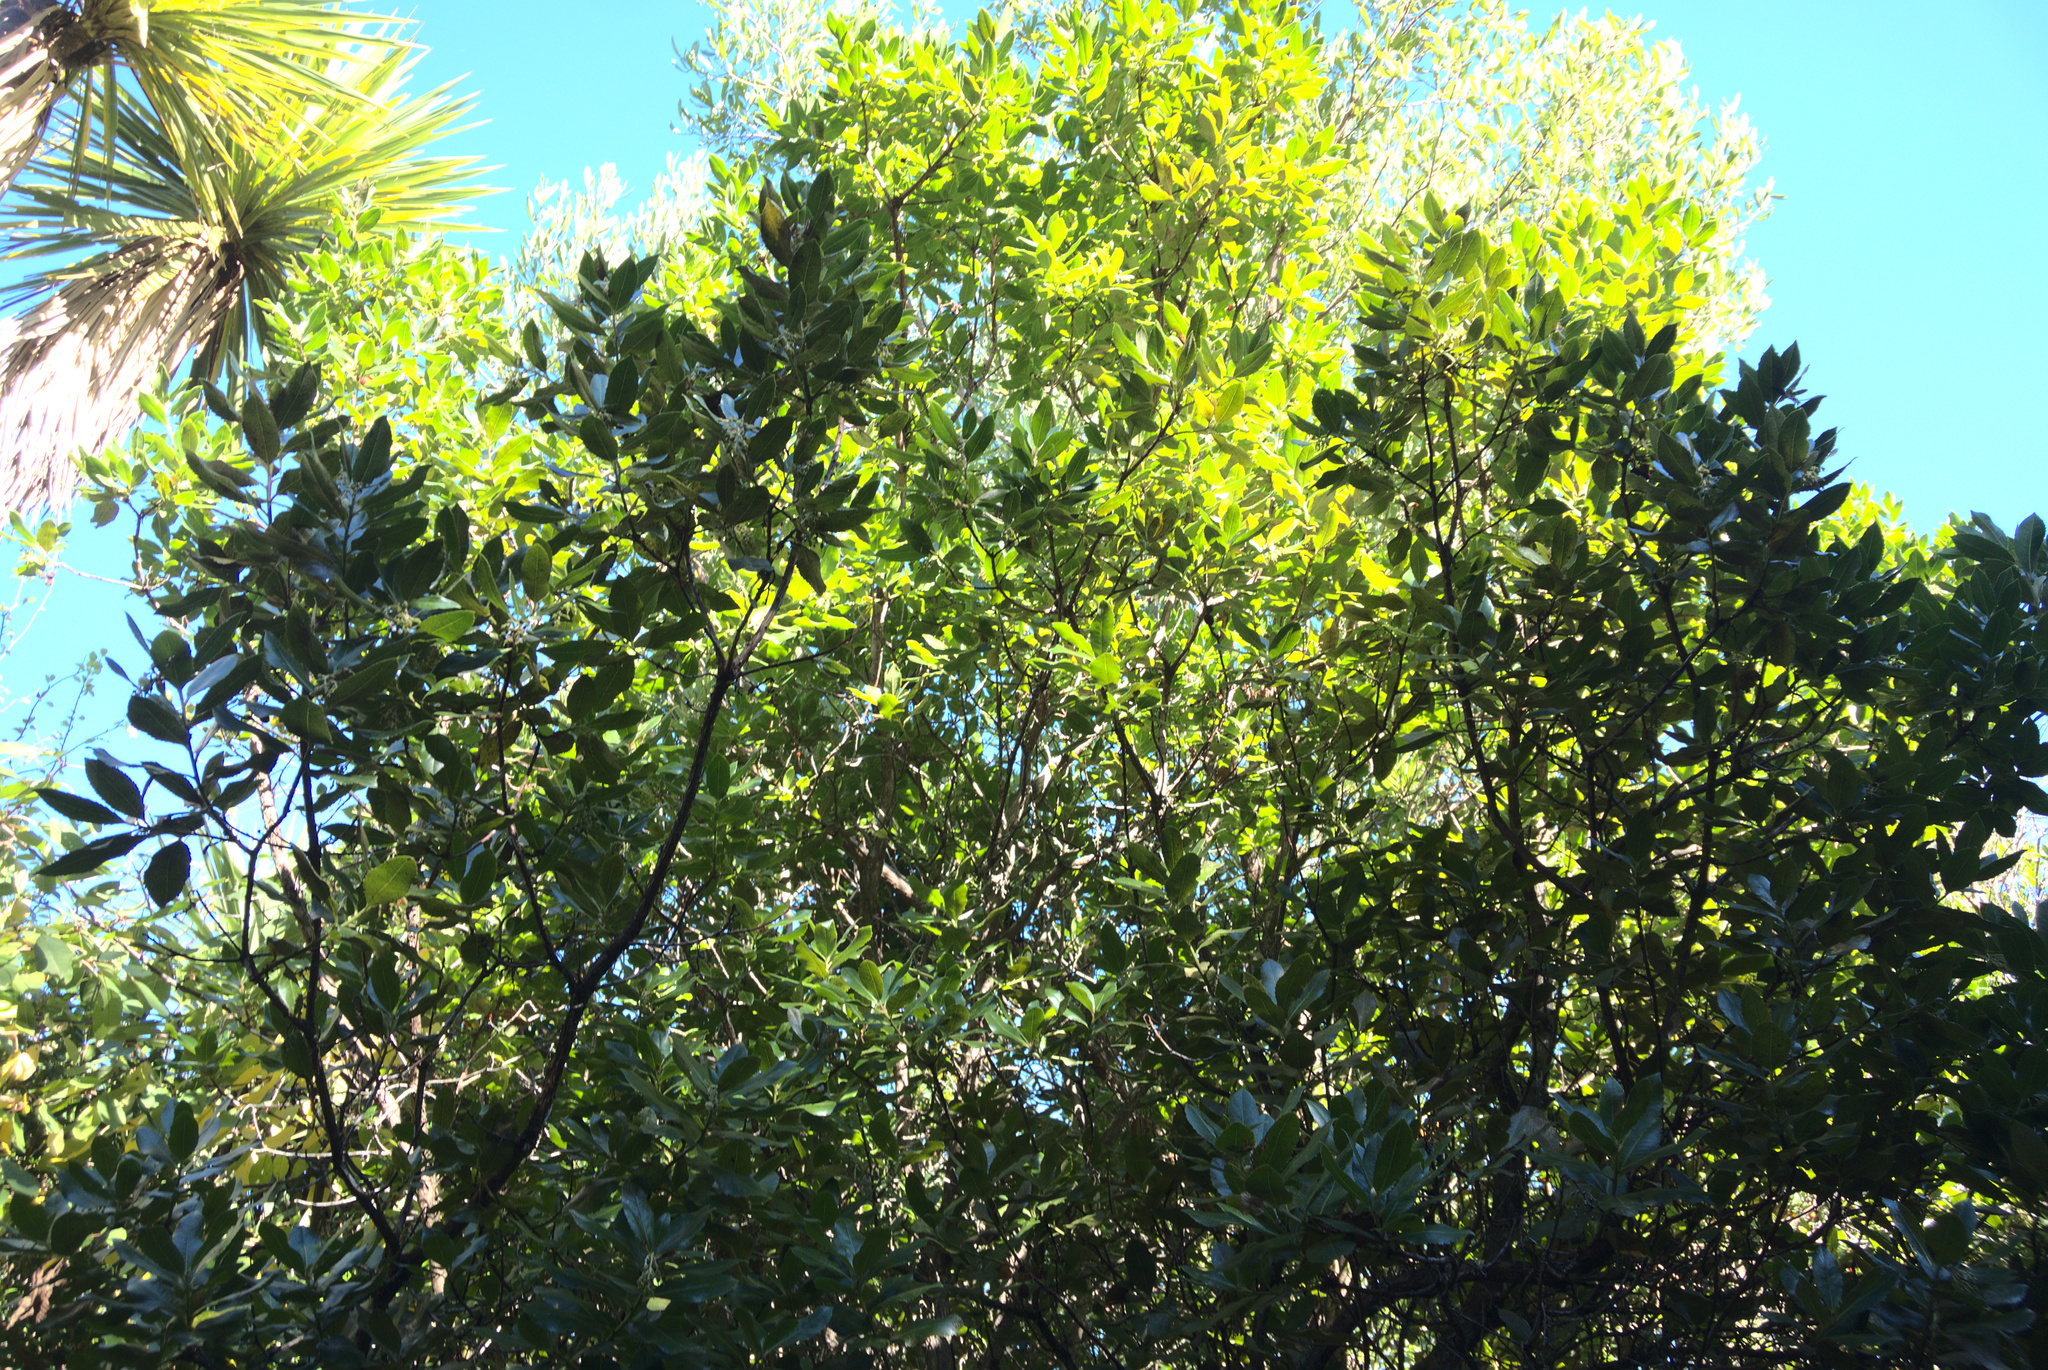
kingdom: Plantae
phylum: Tracheophyta
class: Magnoliopsida
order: Ericales
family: Ericaceae
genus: Arbutus
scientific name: Arbutus unedo
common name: Strawberry-tree
